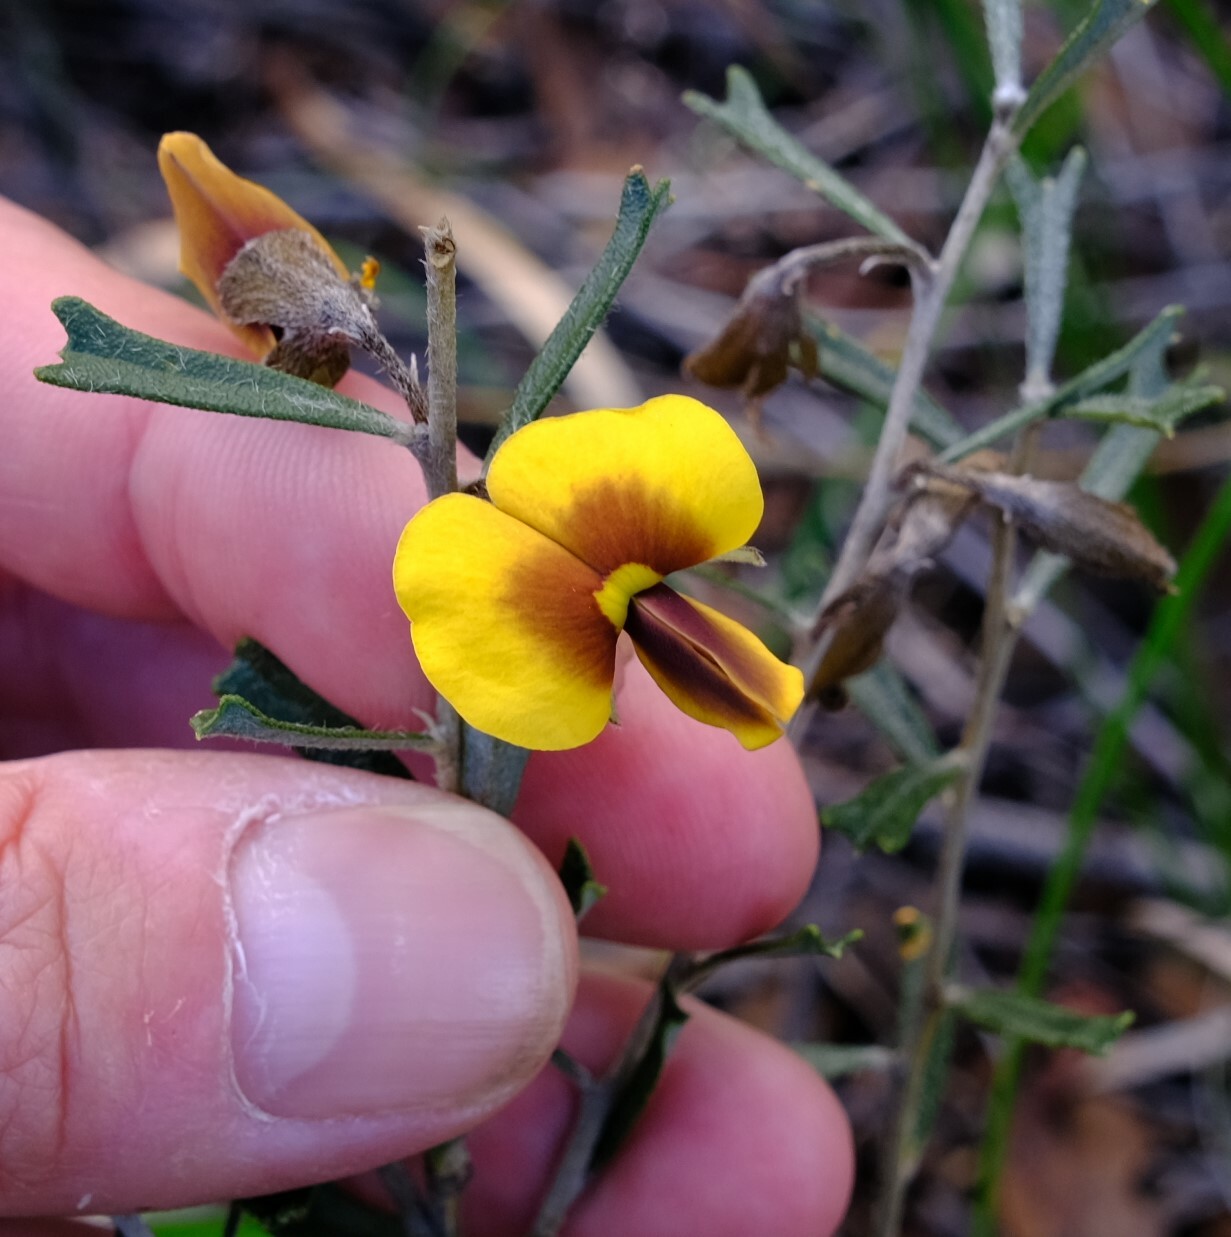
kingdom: Plantae
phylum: Tracheophyta
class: Magnoliopsida
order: Fabales
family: Fabaceae
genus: Cristonia
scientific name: Cristonia biloba
